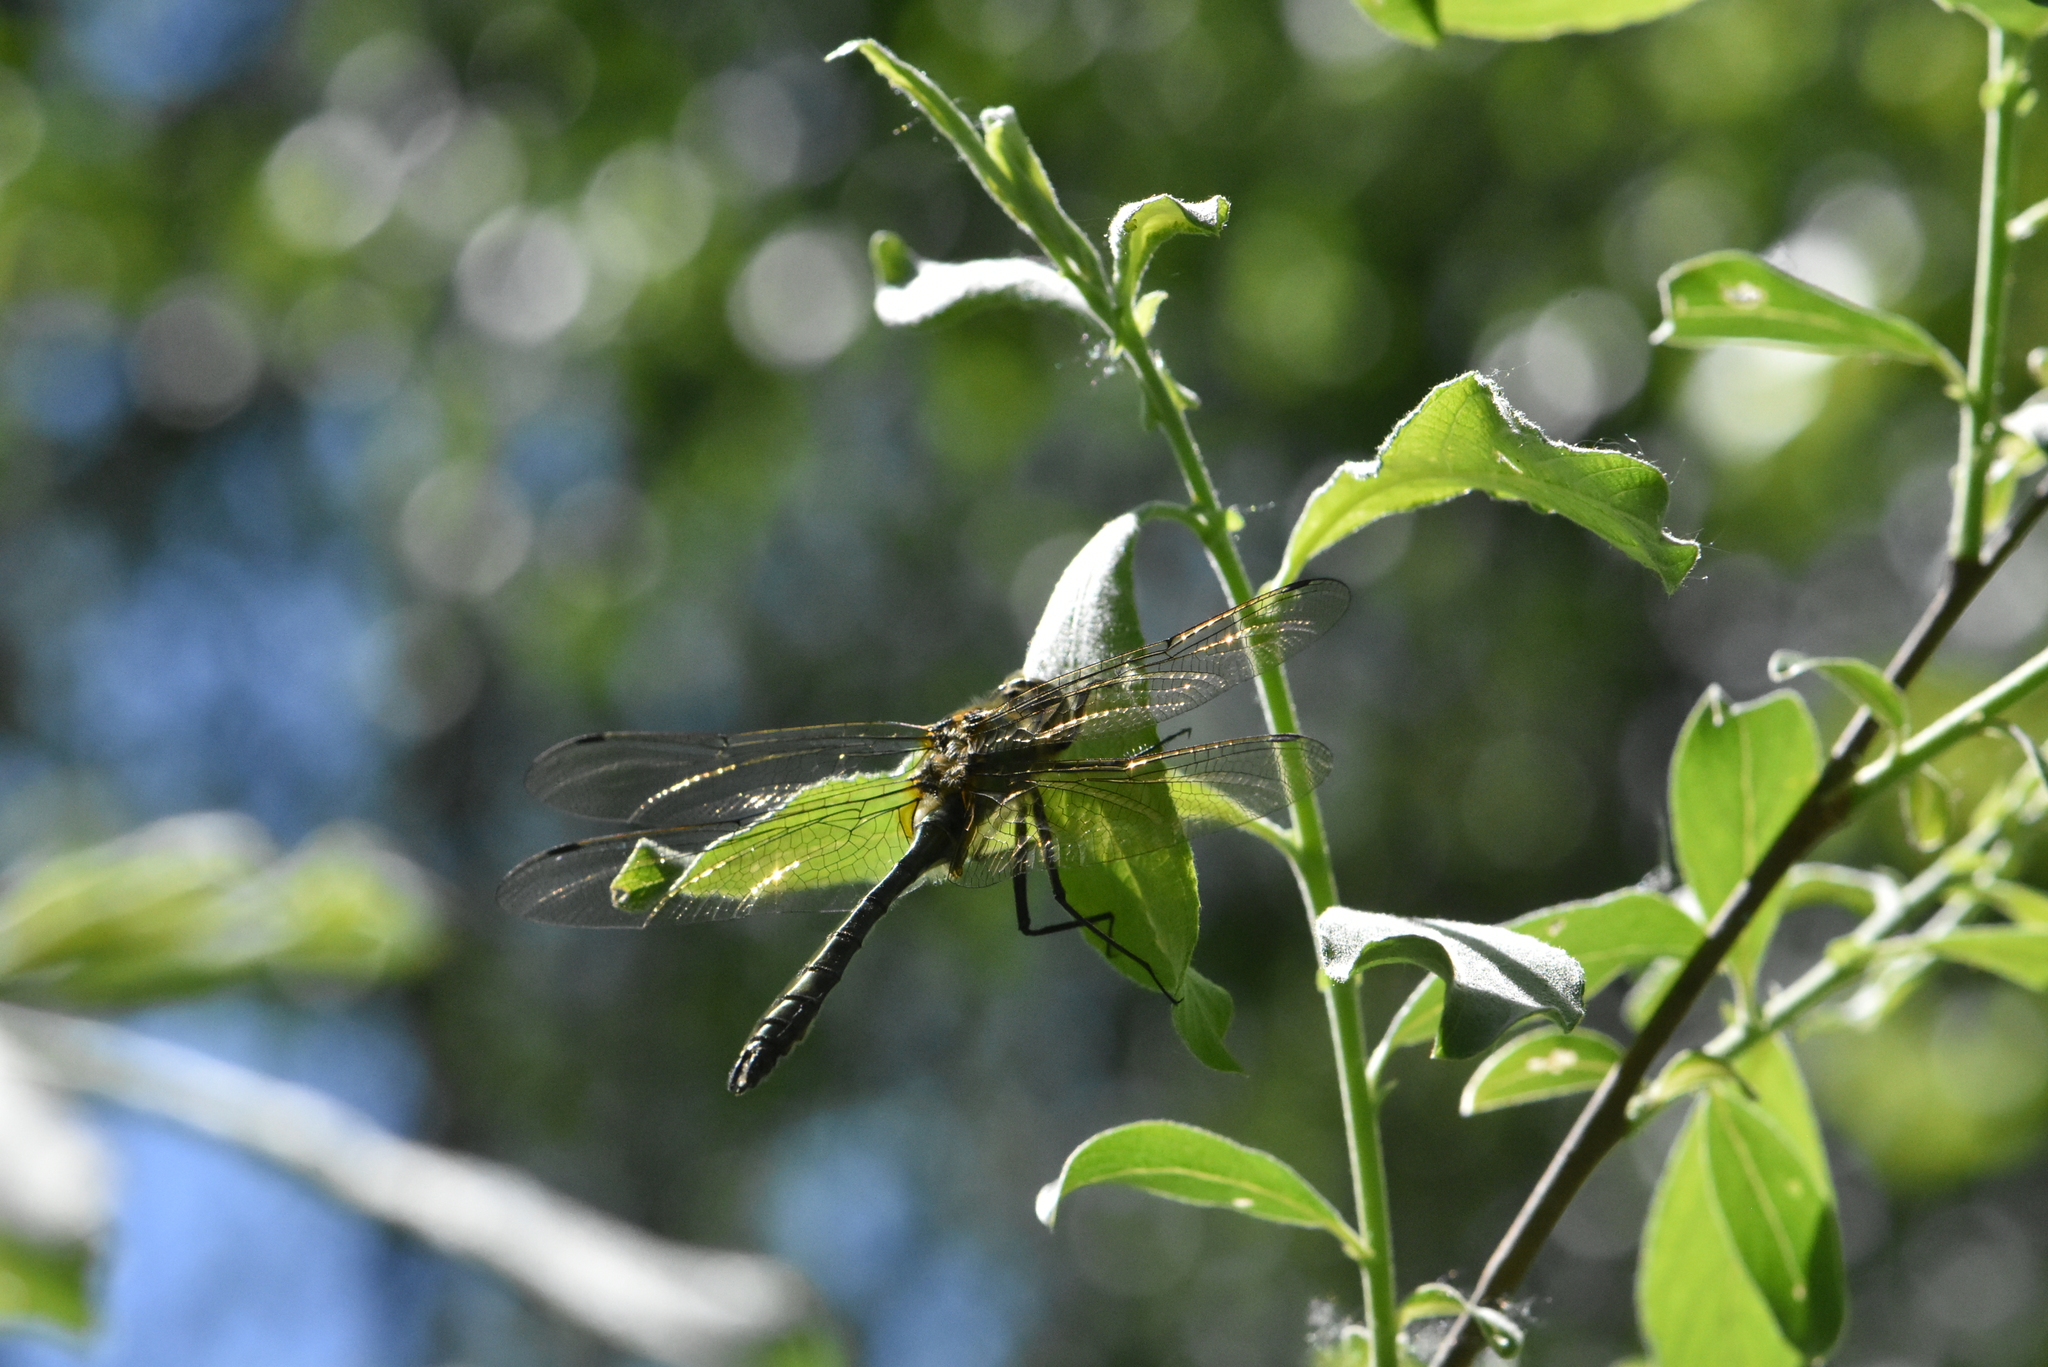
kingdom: Animalia
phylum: Arthropoda
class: Insecta
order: Odonata
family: Corduliidae
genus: Cordulia
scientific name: Cordulia aenea
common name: Downy emerald
